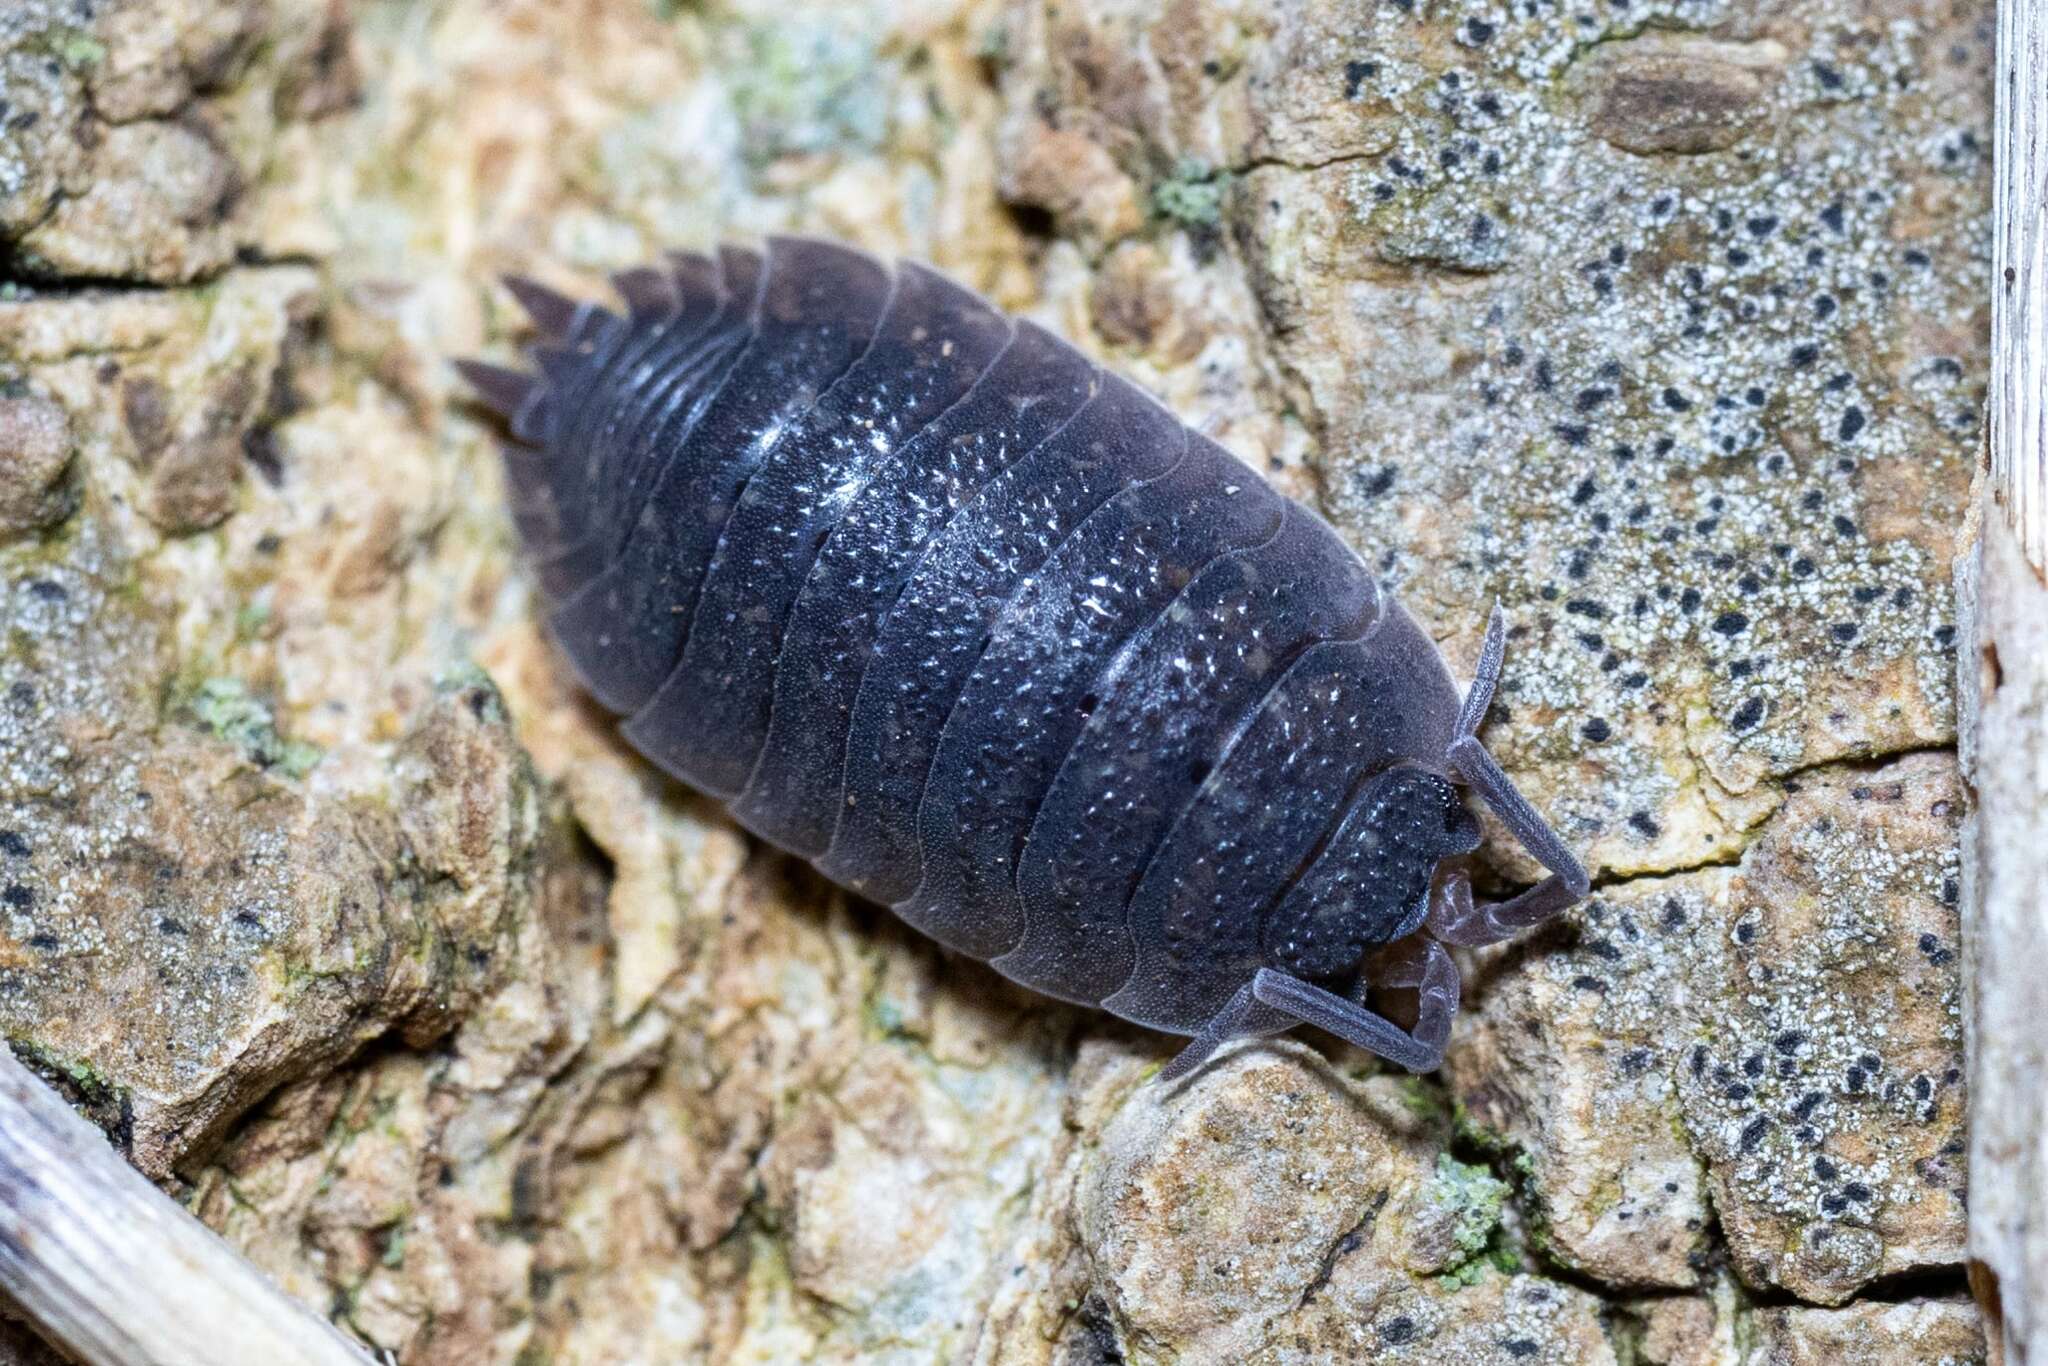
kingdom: Animalia
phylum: Arthropoda
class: Malacostraca
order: Isopoda
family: Porcellionidae
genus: Porcellio
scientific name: Porcellio scaber
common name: Common rough woodlouse
